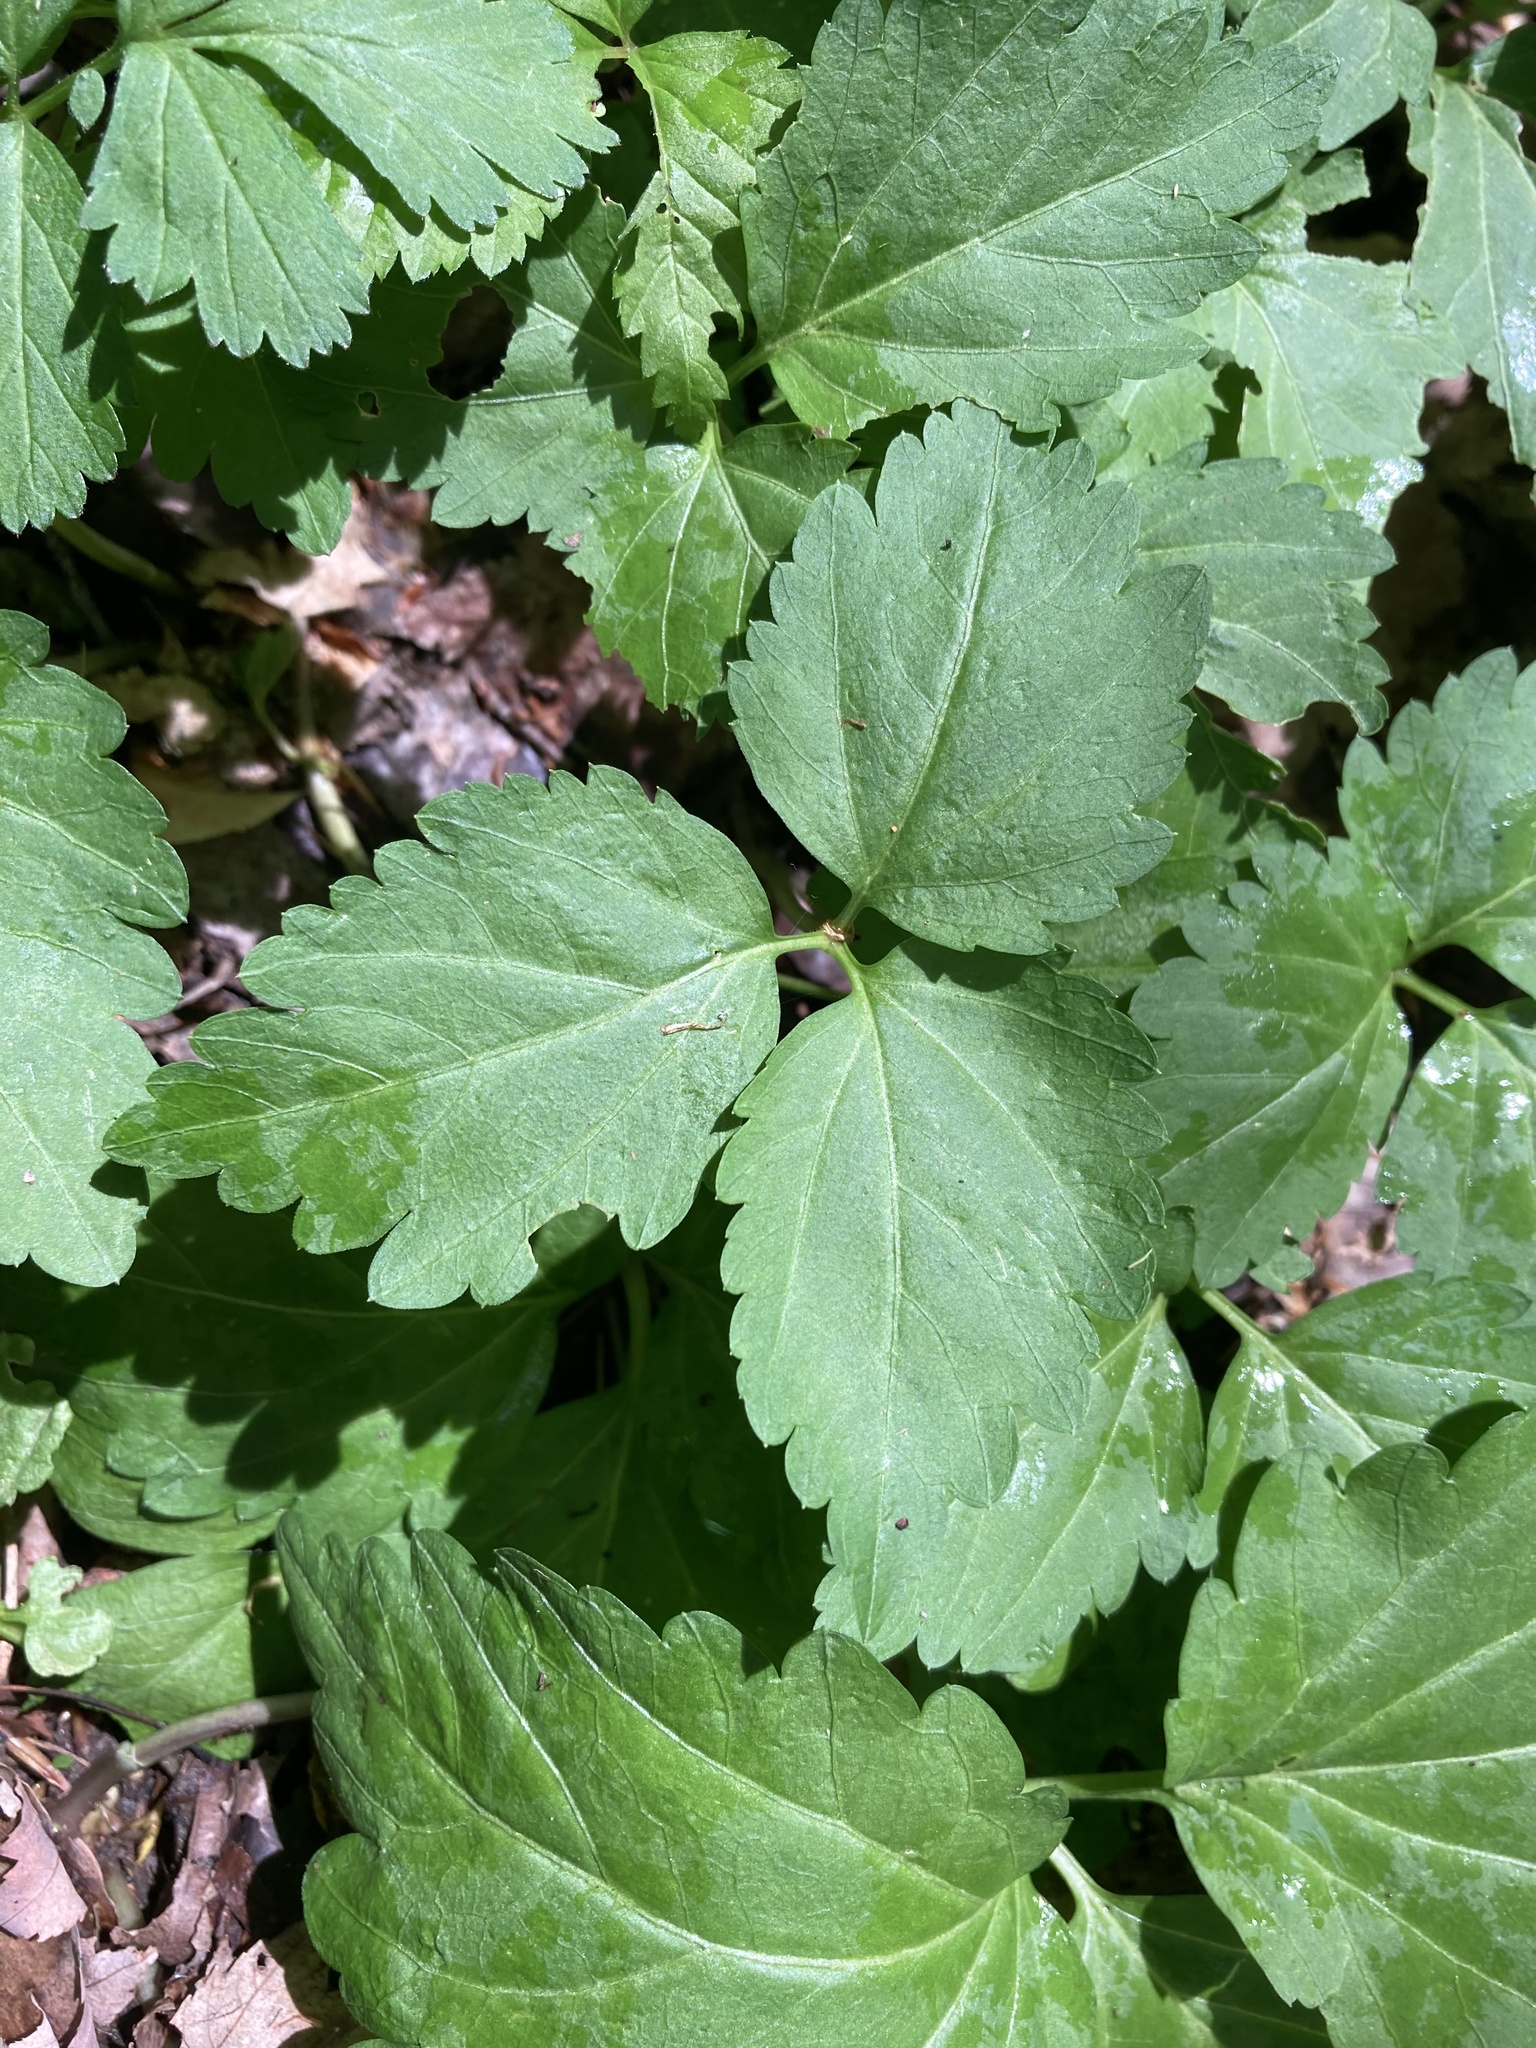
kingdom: Plantae
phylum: Tracheophyta
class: Magnoliopsida
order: Brassicales
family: Brassicaceae
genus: Cardamine
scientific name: Cardamine diphylla
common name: Broad-leaved toothwort
